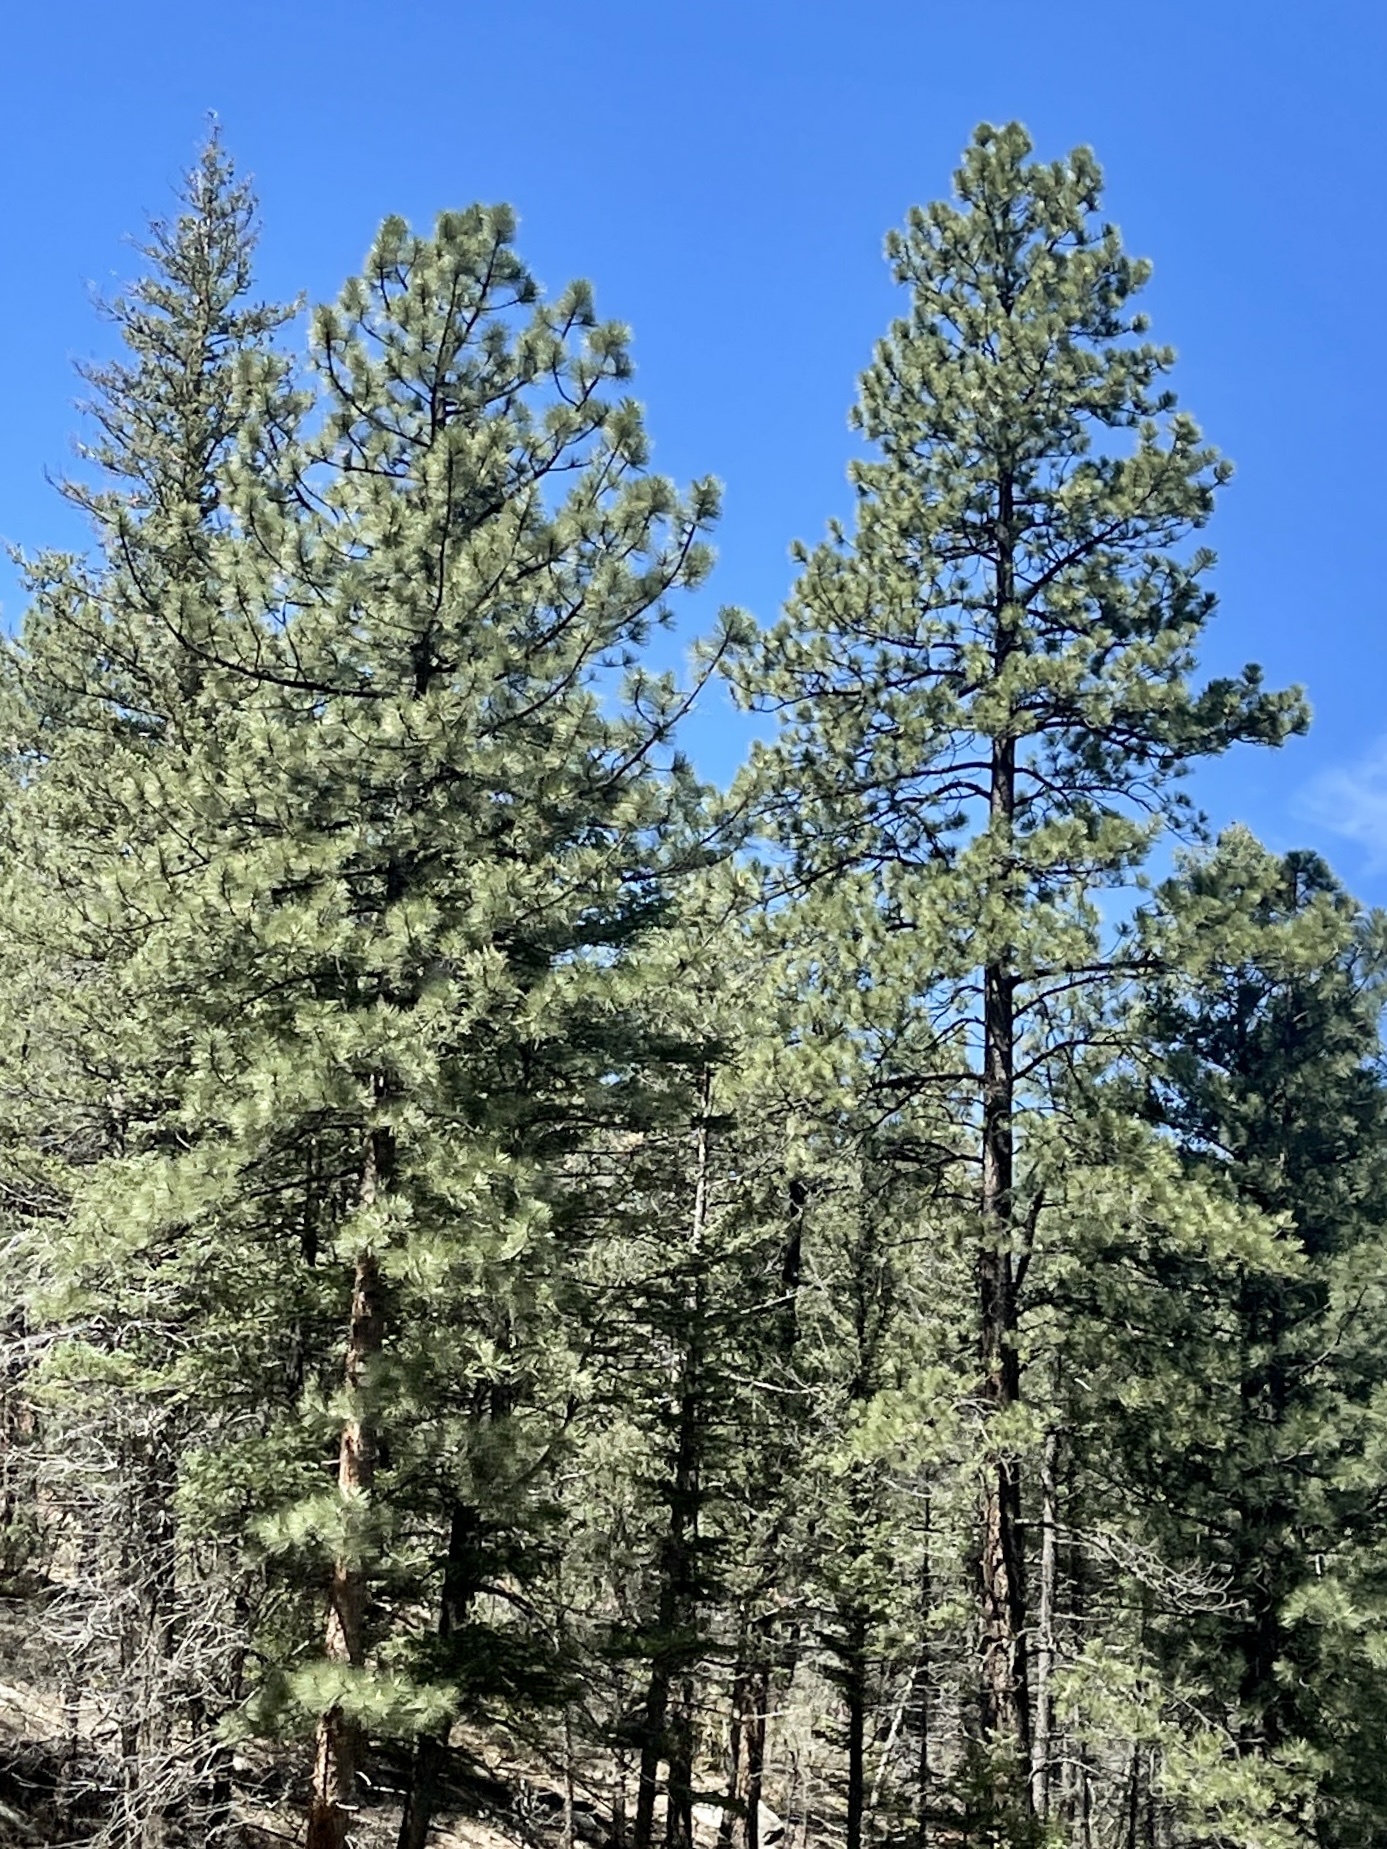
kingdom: Plantae
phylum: Tracheophyta
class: Pinopsida
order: Pinales
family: Pinaceae
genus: Pinus
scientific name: Pinus ponderosa
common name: Western yellow-pine
